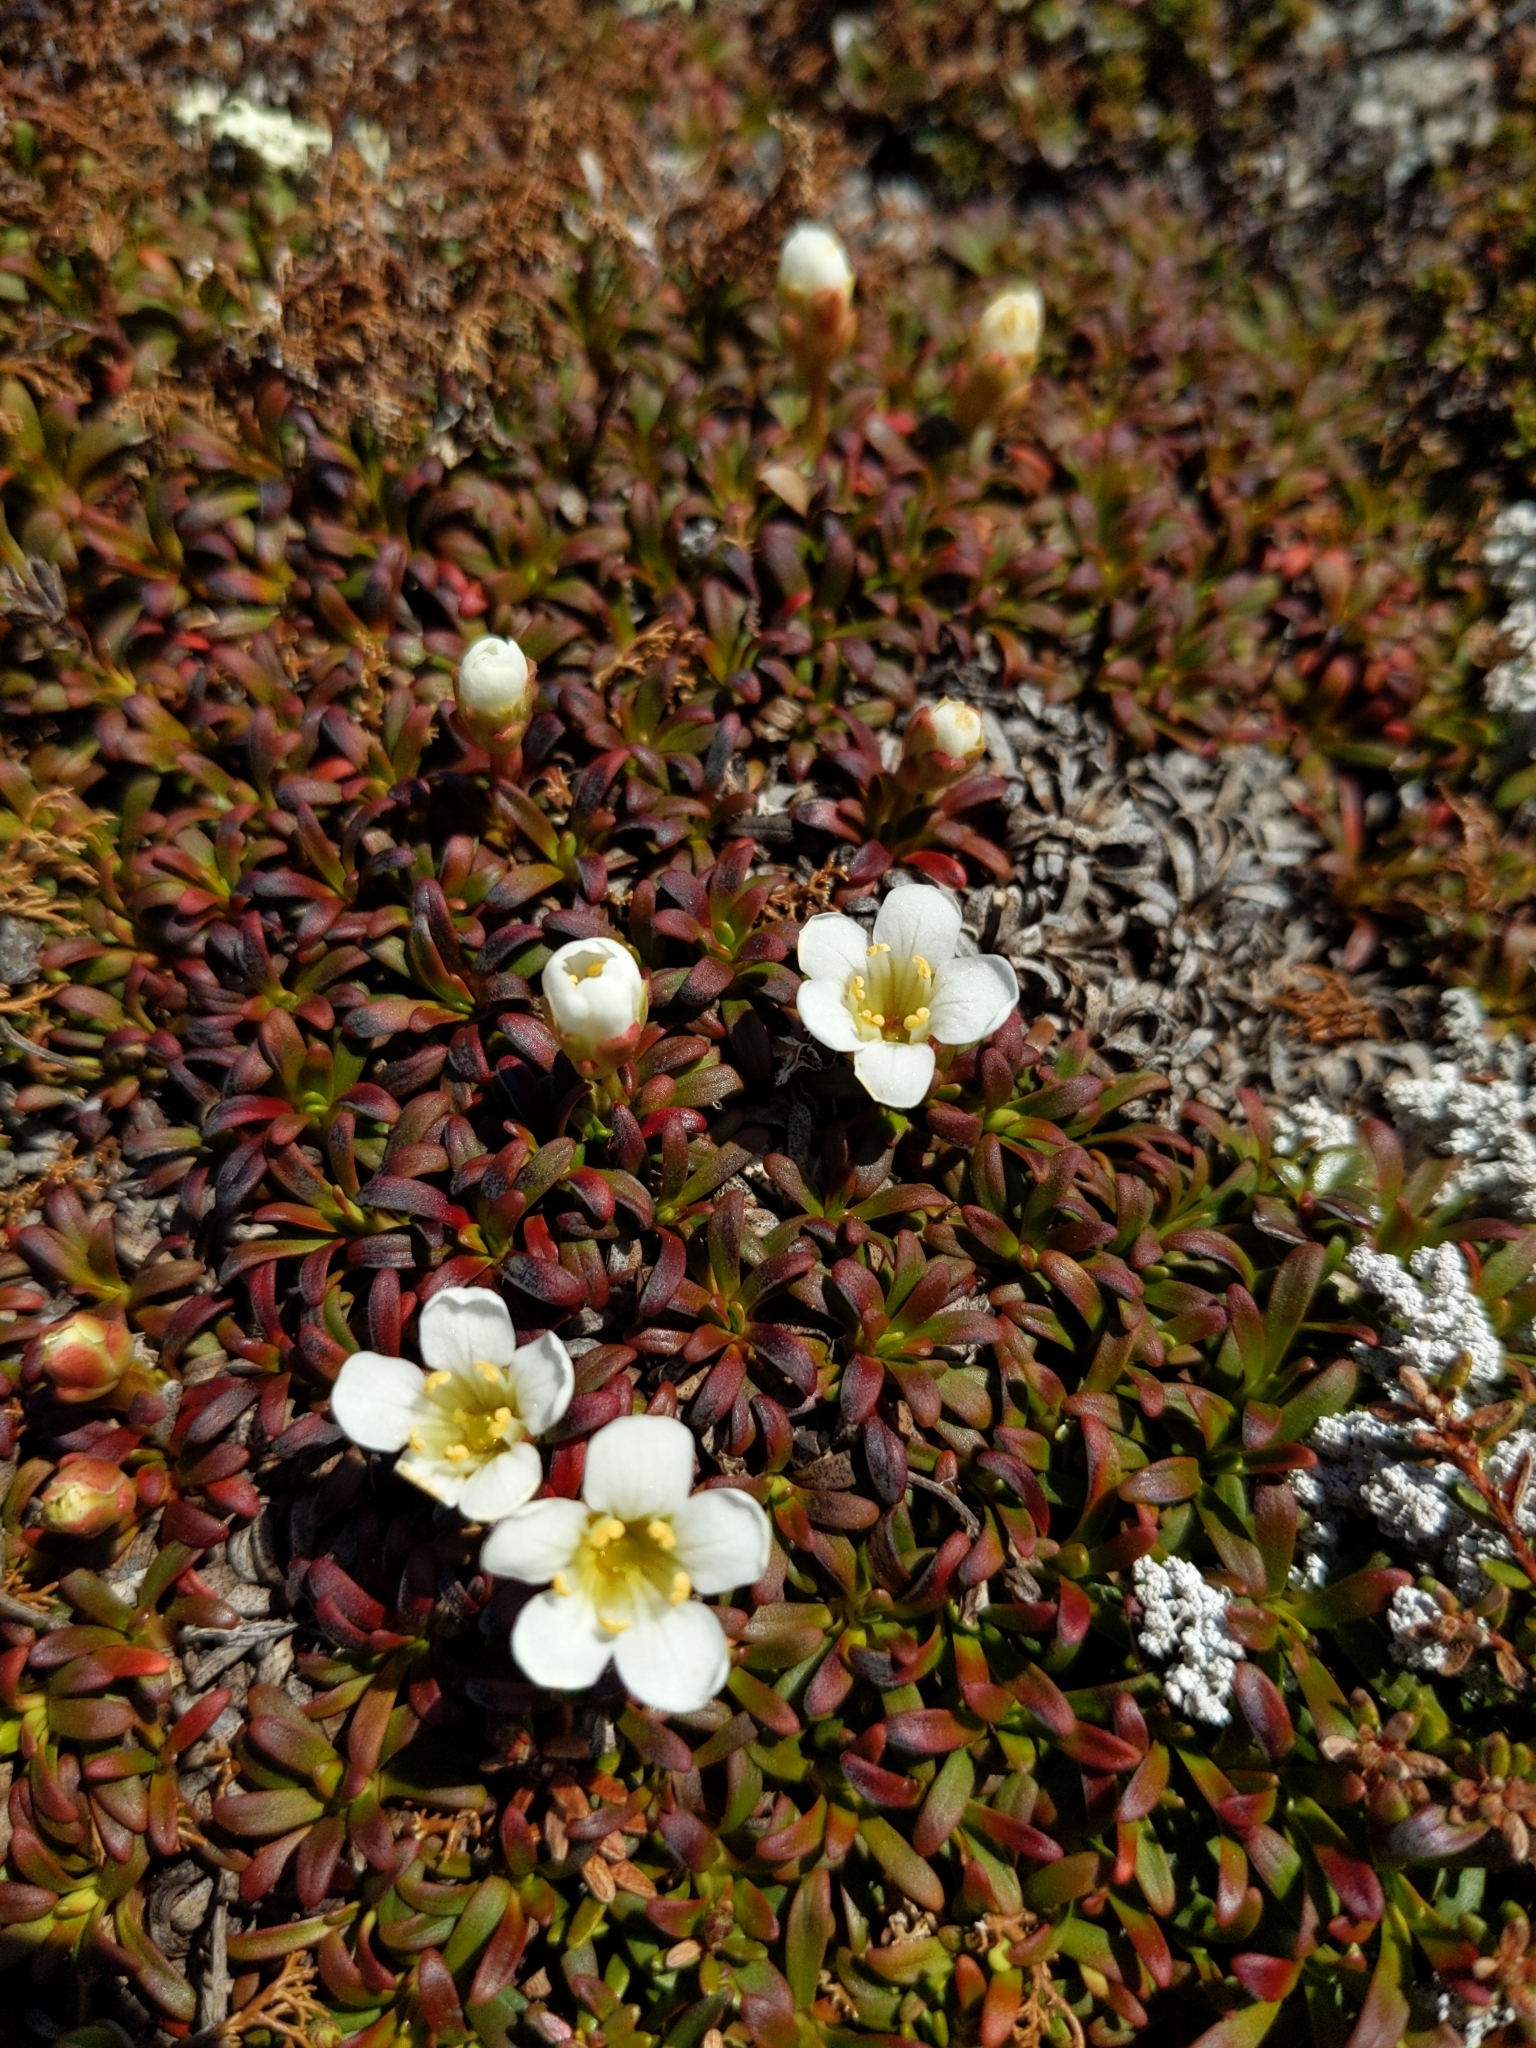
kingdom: Plantae
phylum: Tracheophyta
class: Magnoliopsida
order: Ericales
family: Diapensiaceae
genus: Diapensia
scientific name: Diapensia lapponica
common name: Diapensia
